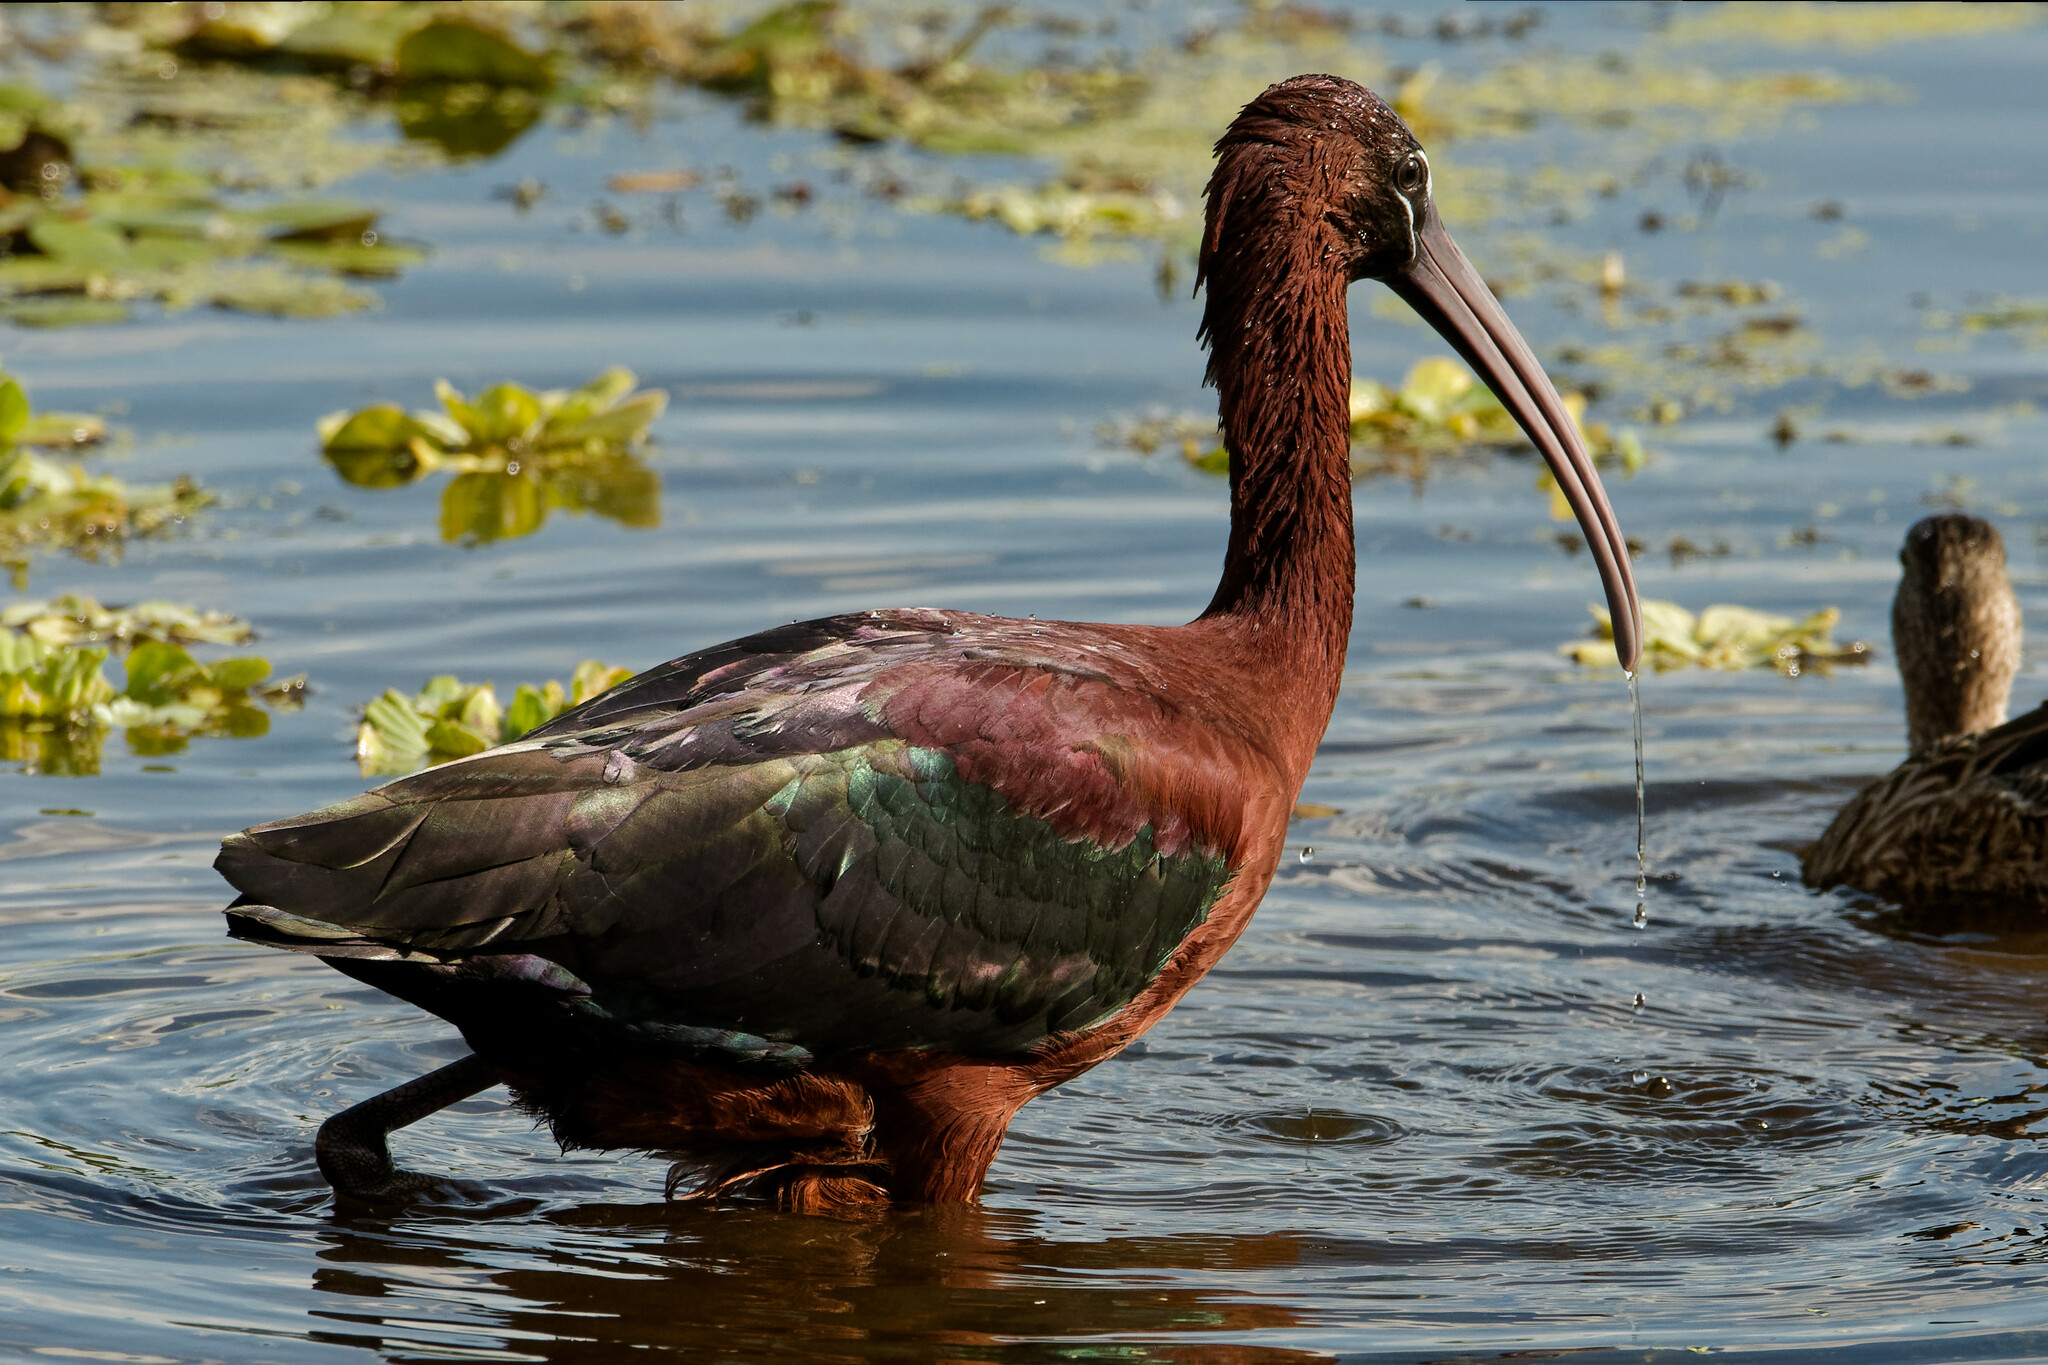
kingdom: Animalia
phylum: Chordata
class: Aves
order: Pelecaniformes
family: Threskiornithidae
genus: Plegadis
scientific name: Plegadis falcinellus
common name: Glossy ibis
